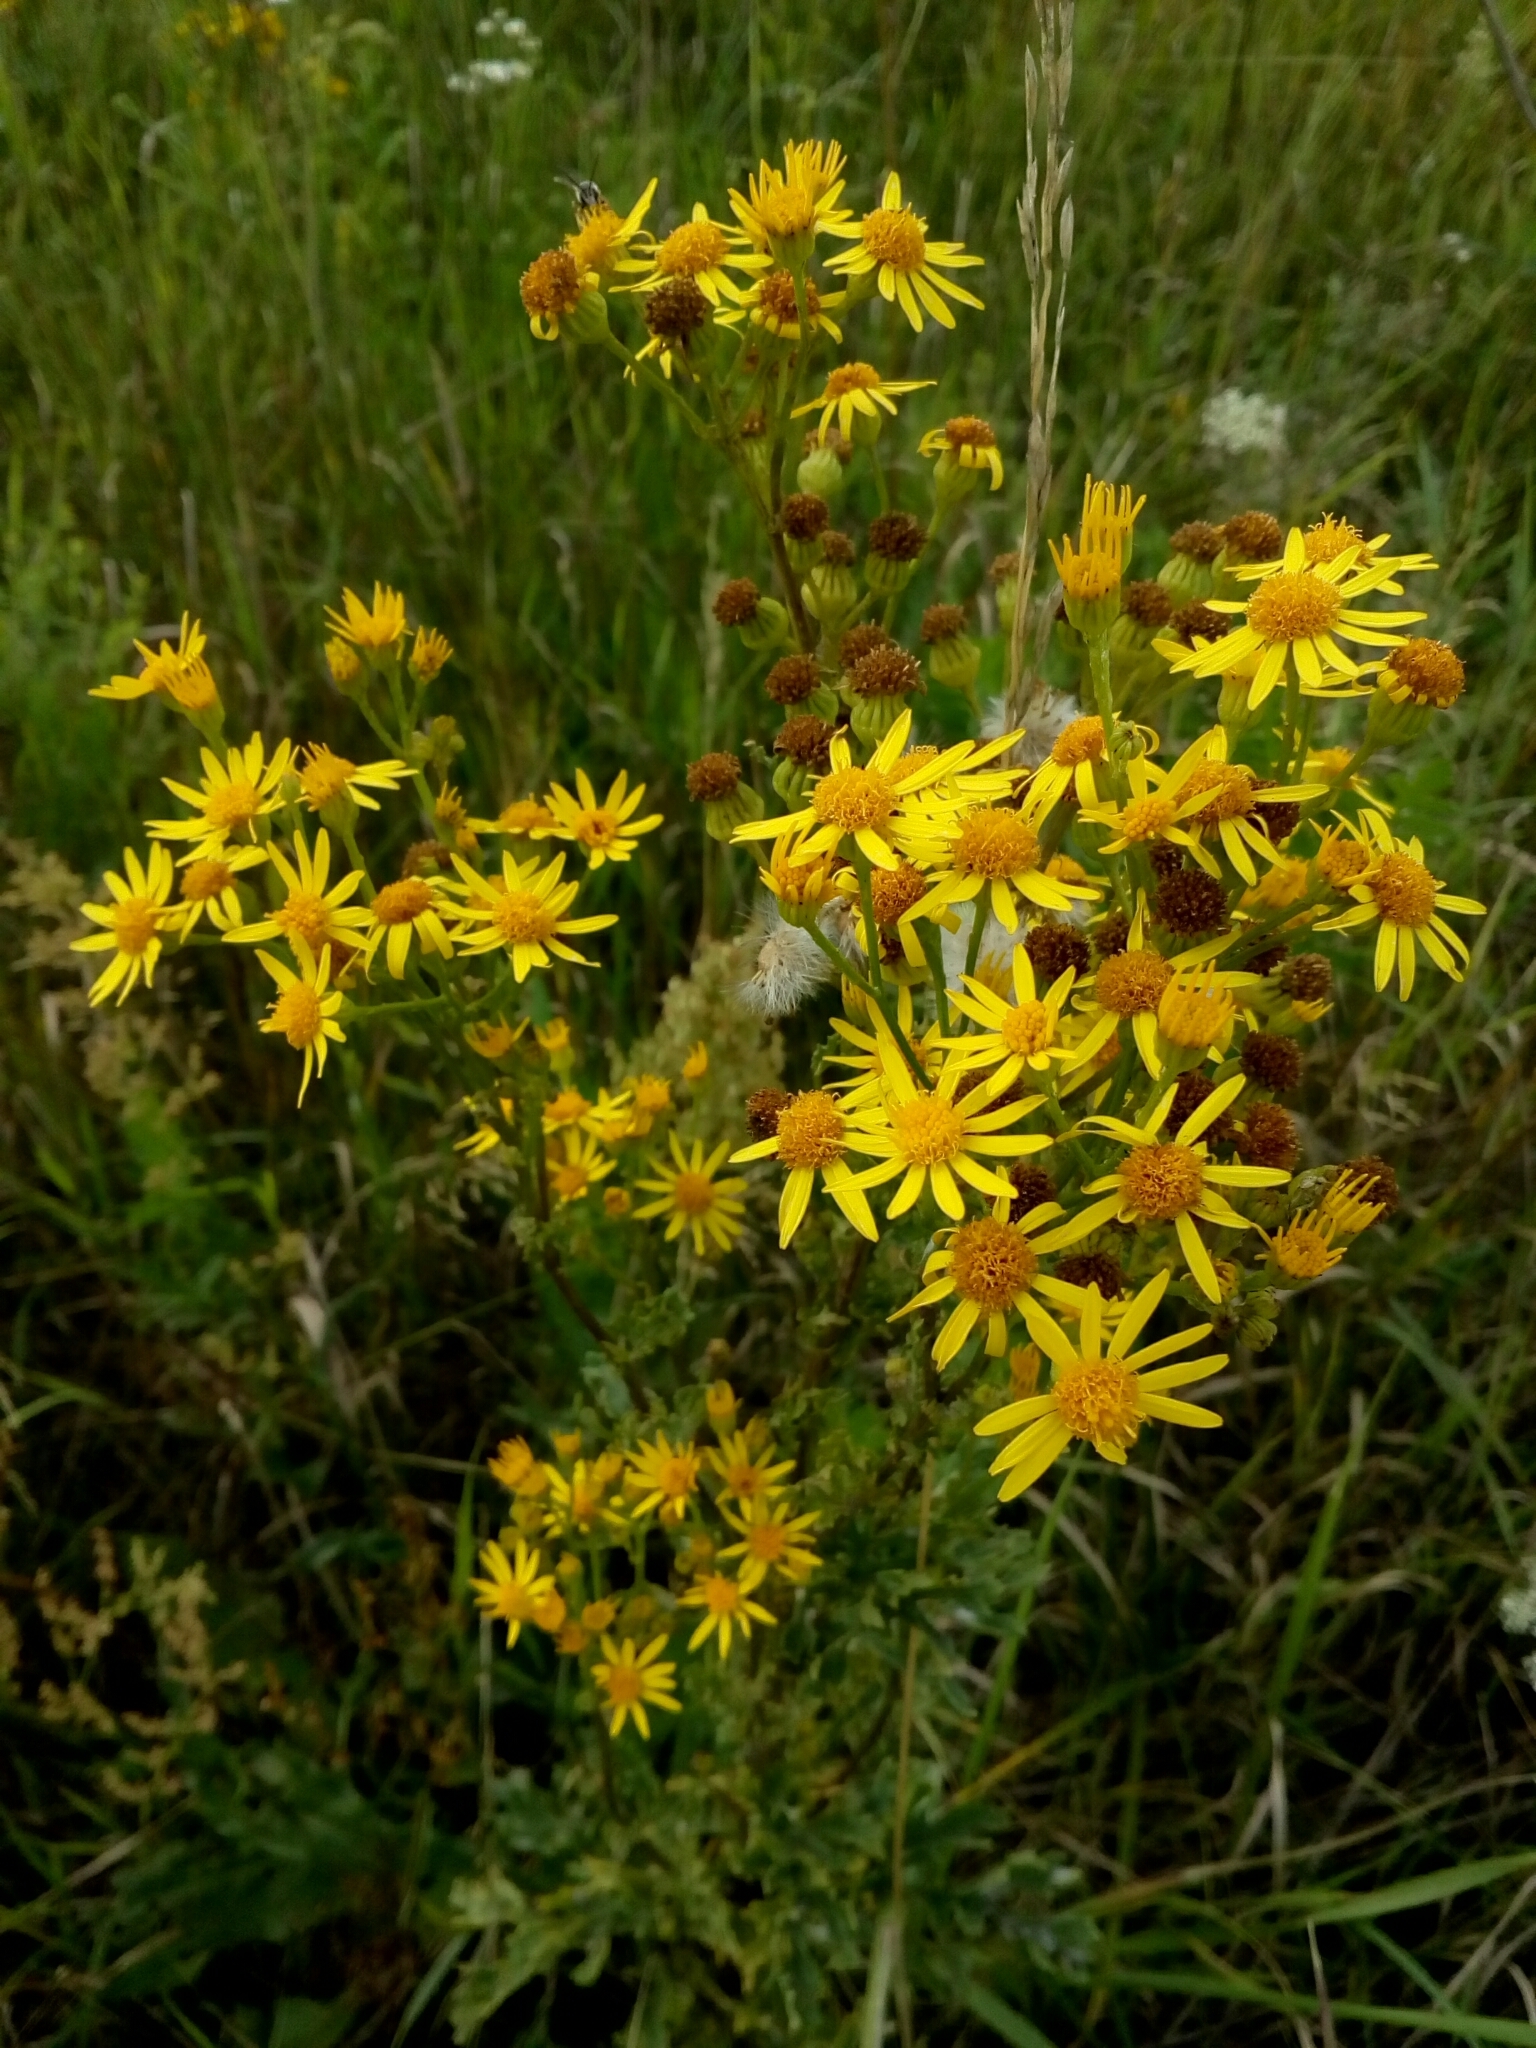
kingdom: Plantae
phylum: Tracheophyta
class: Magnoliopsida
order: Asterales
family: Asteraceae
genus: Jacobaea
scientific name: Jacobaea vulgaris
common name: Stinking willie
